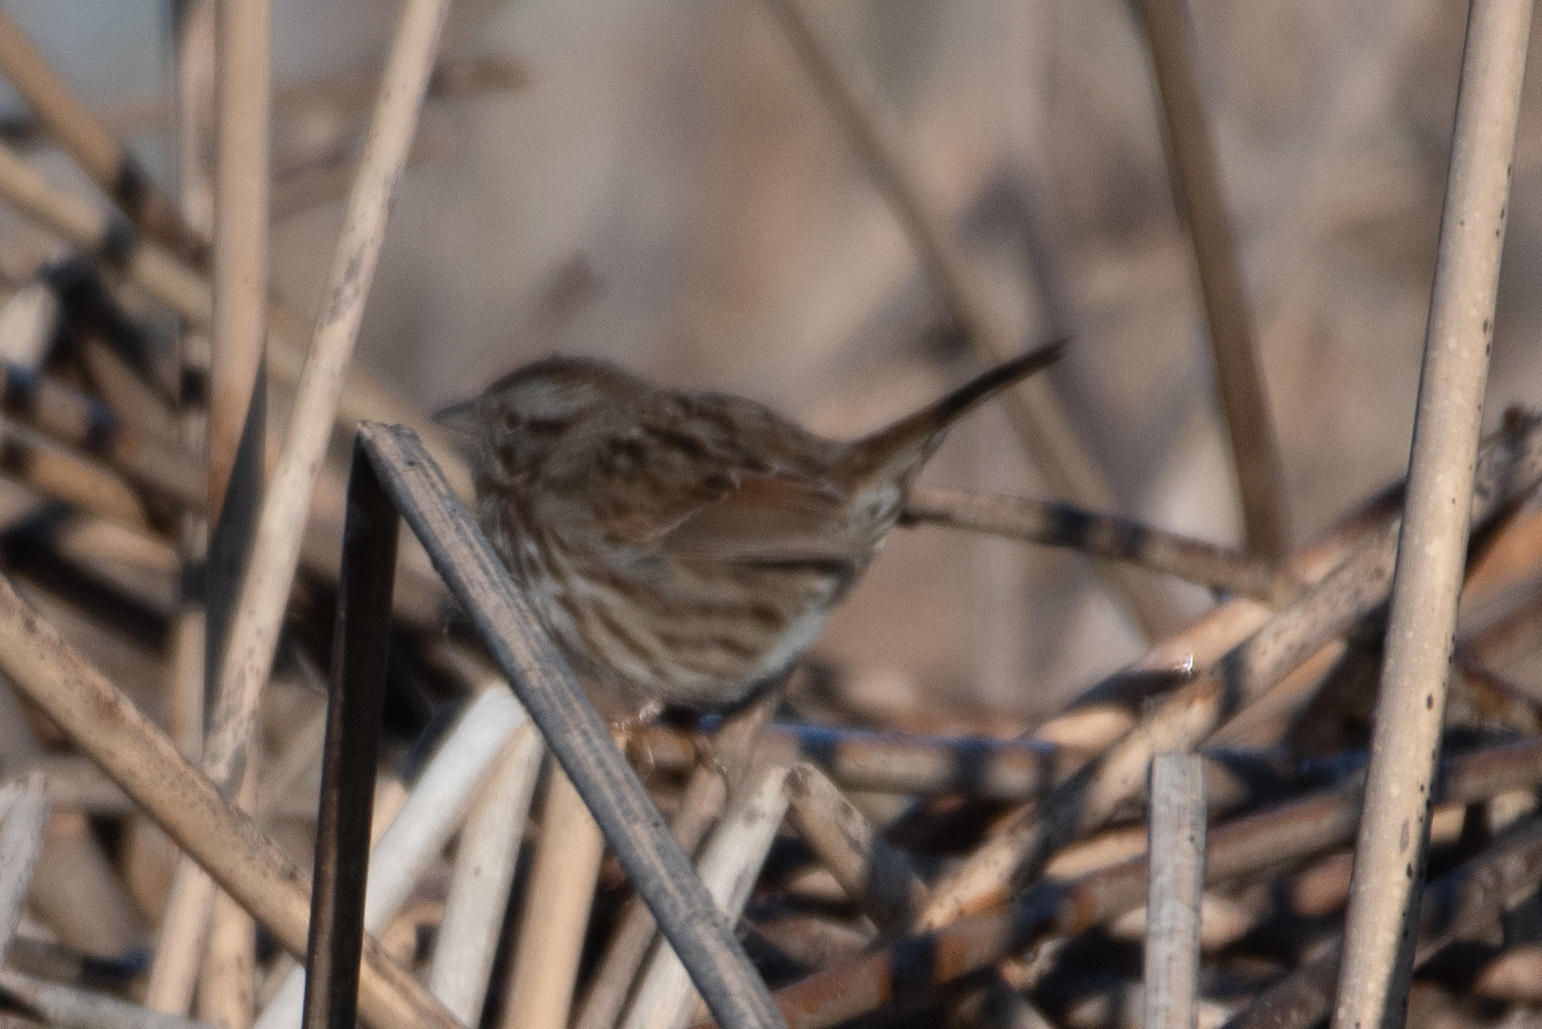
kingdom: Animalia
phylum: Chordata
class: Aves
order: Passeriformes
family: Passerellidae
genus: Melospiza
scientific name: Melospiza melodia
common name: Song sparrow
